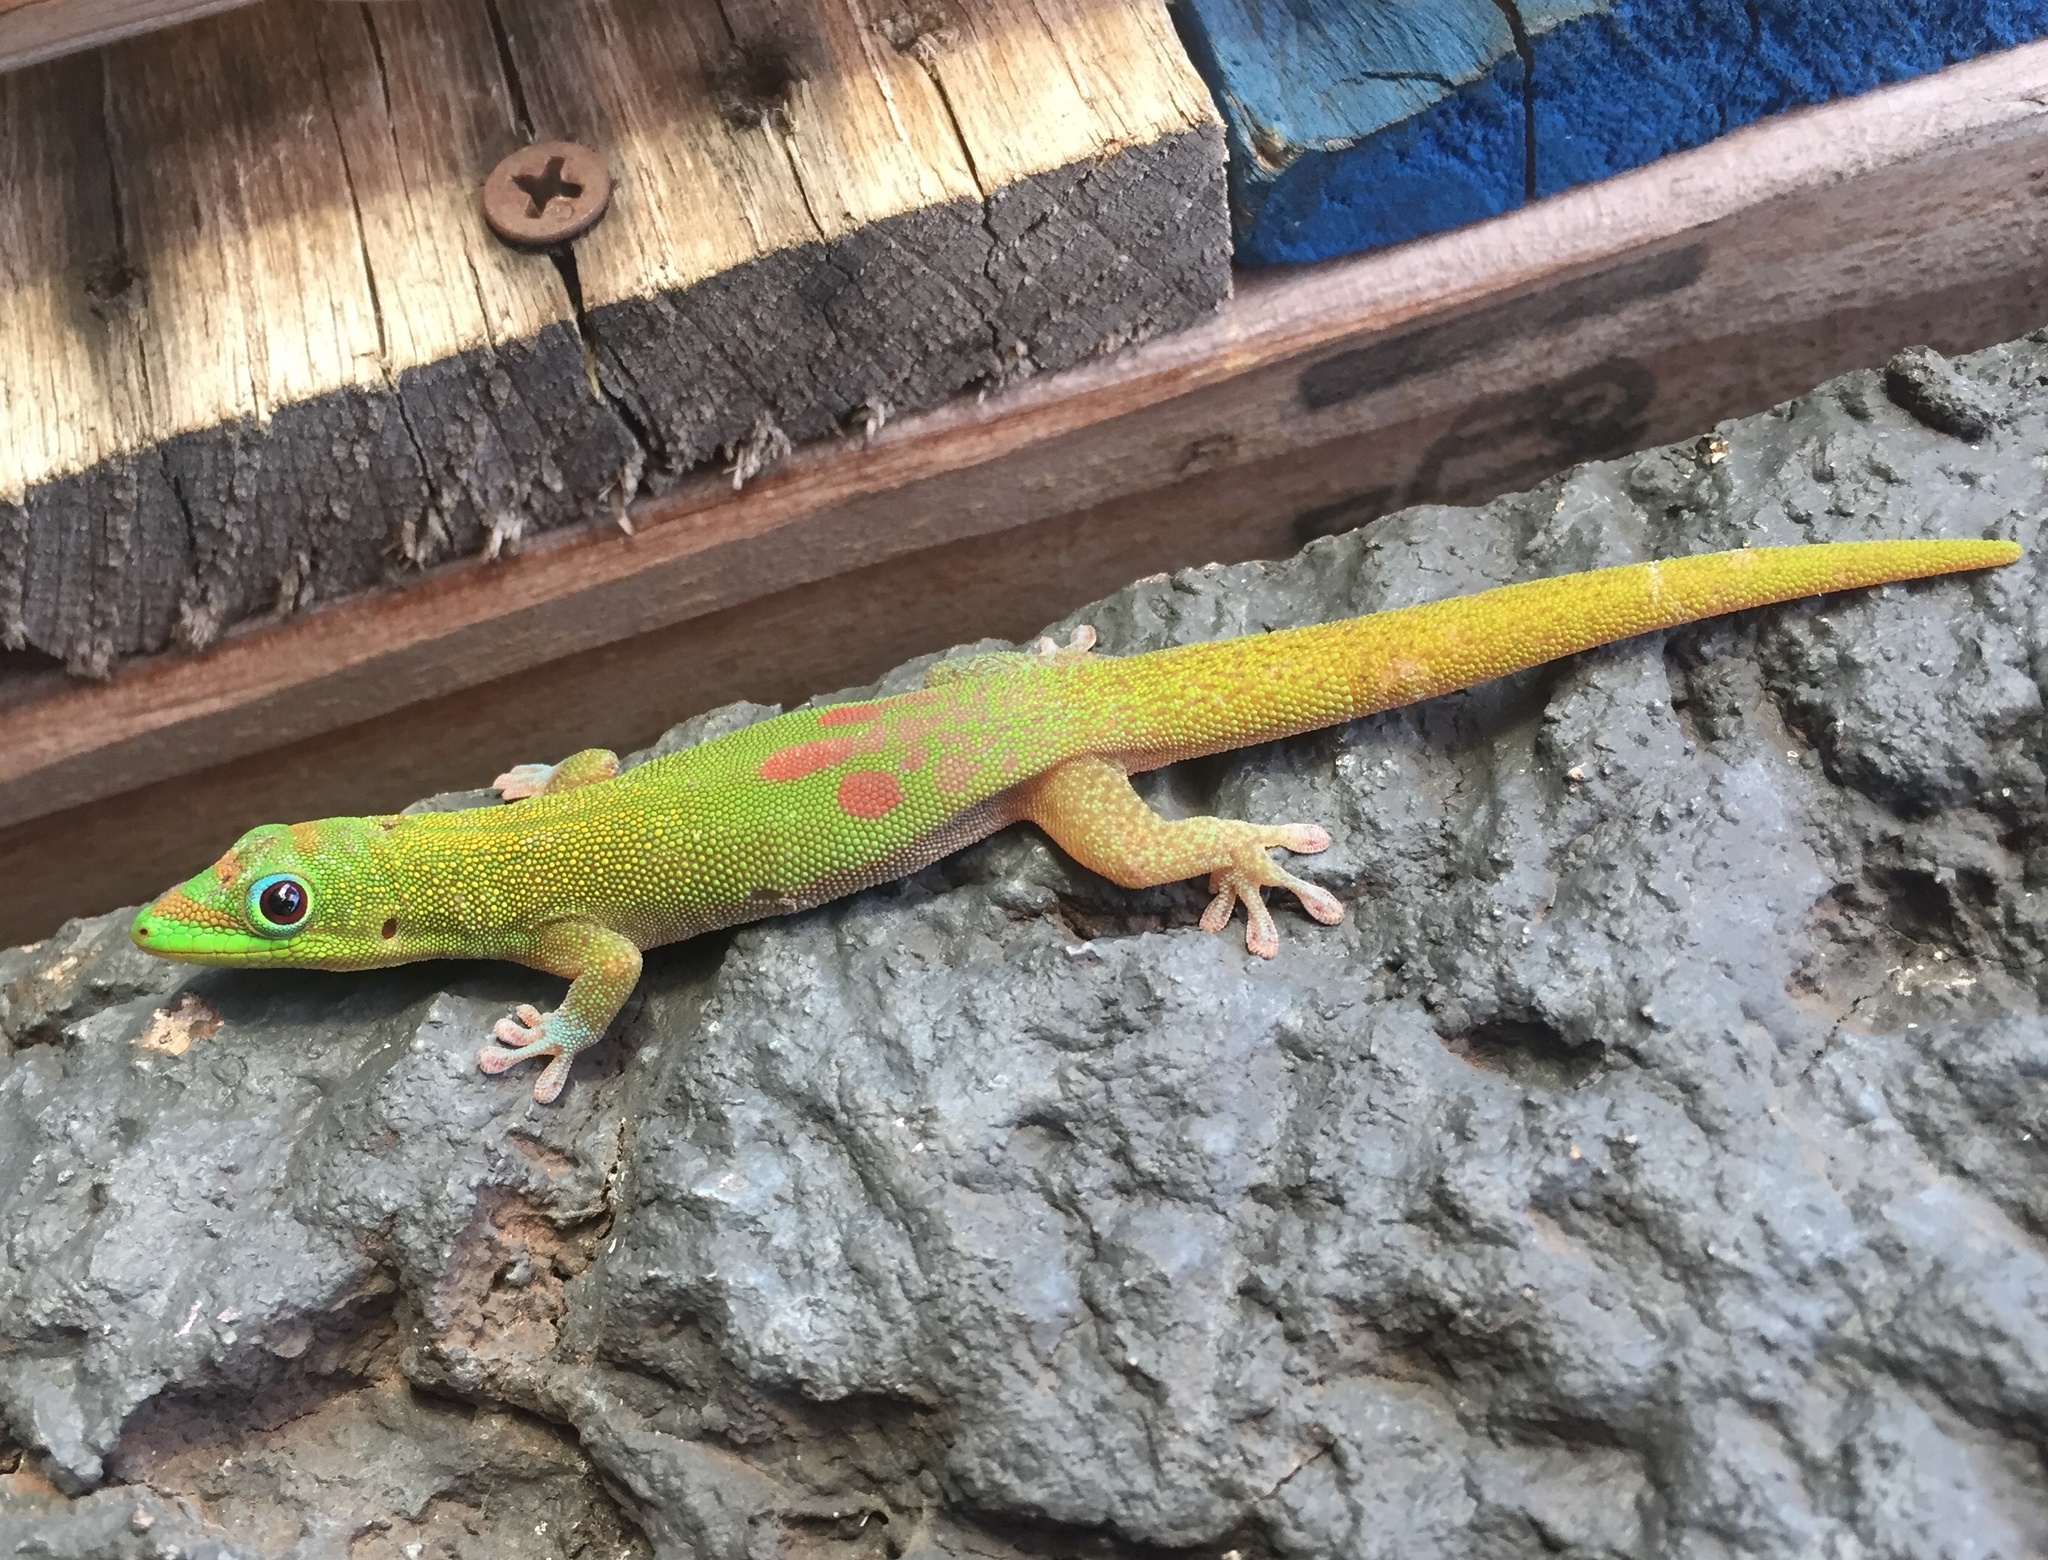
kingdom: Animalia
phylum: Chordata
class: Squamata
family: Gekkonidae
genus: Phelsuma
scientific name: Phelsuma laticauda
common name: Gold dust day gecko
